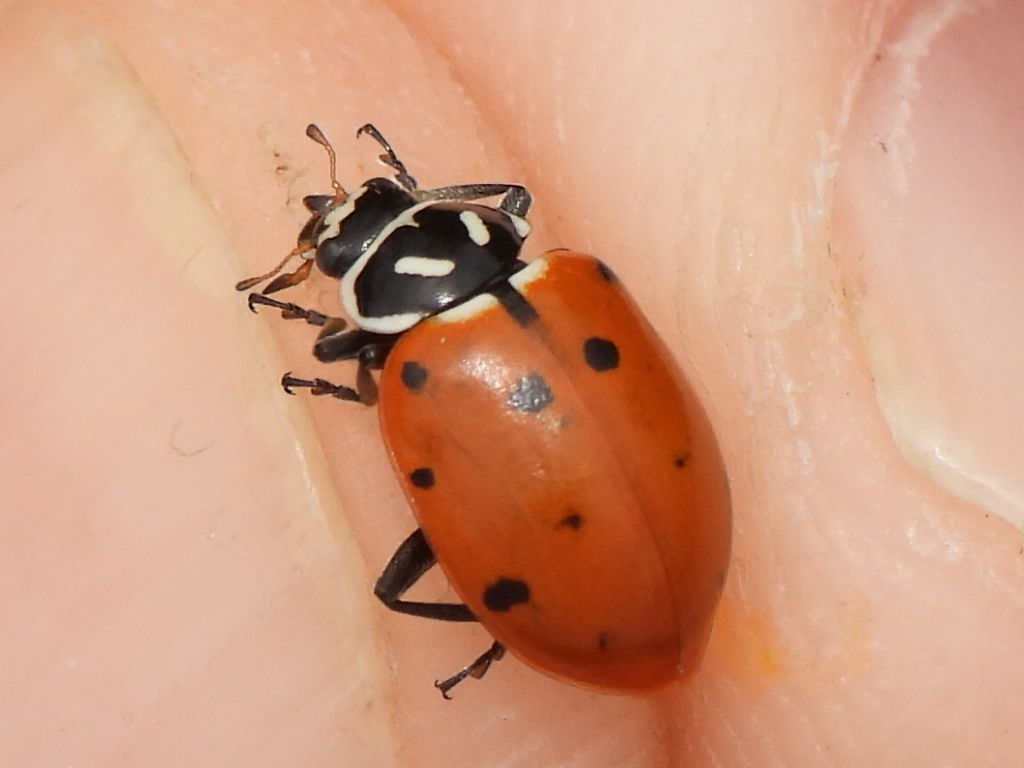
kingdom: Animalia
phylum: Arthropoda
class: Insecta
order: Coleoptera
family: Coccinellidae
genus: Hippodamia
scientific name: Hippodamia convergens
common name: Convergent lady beetle
